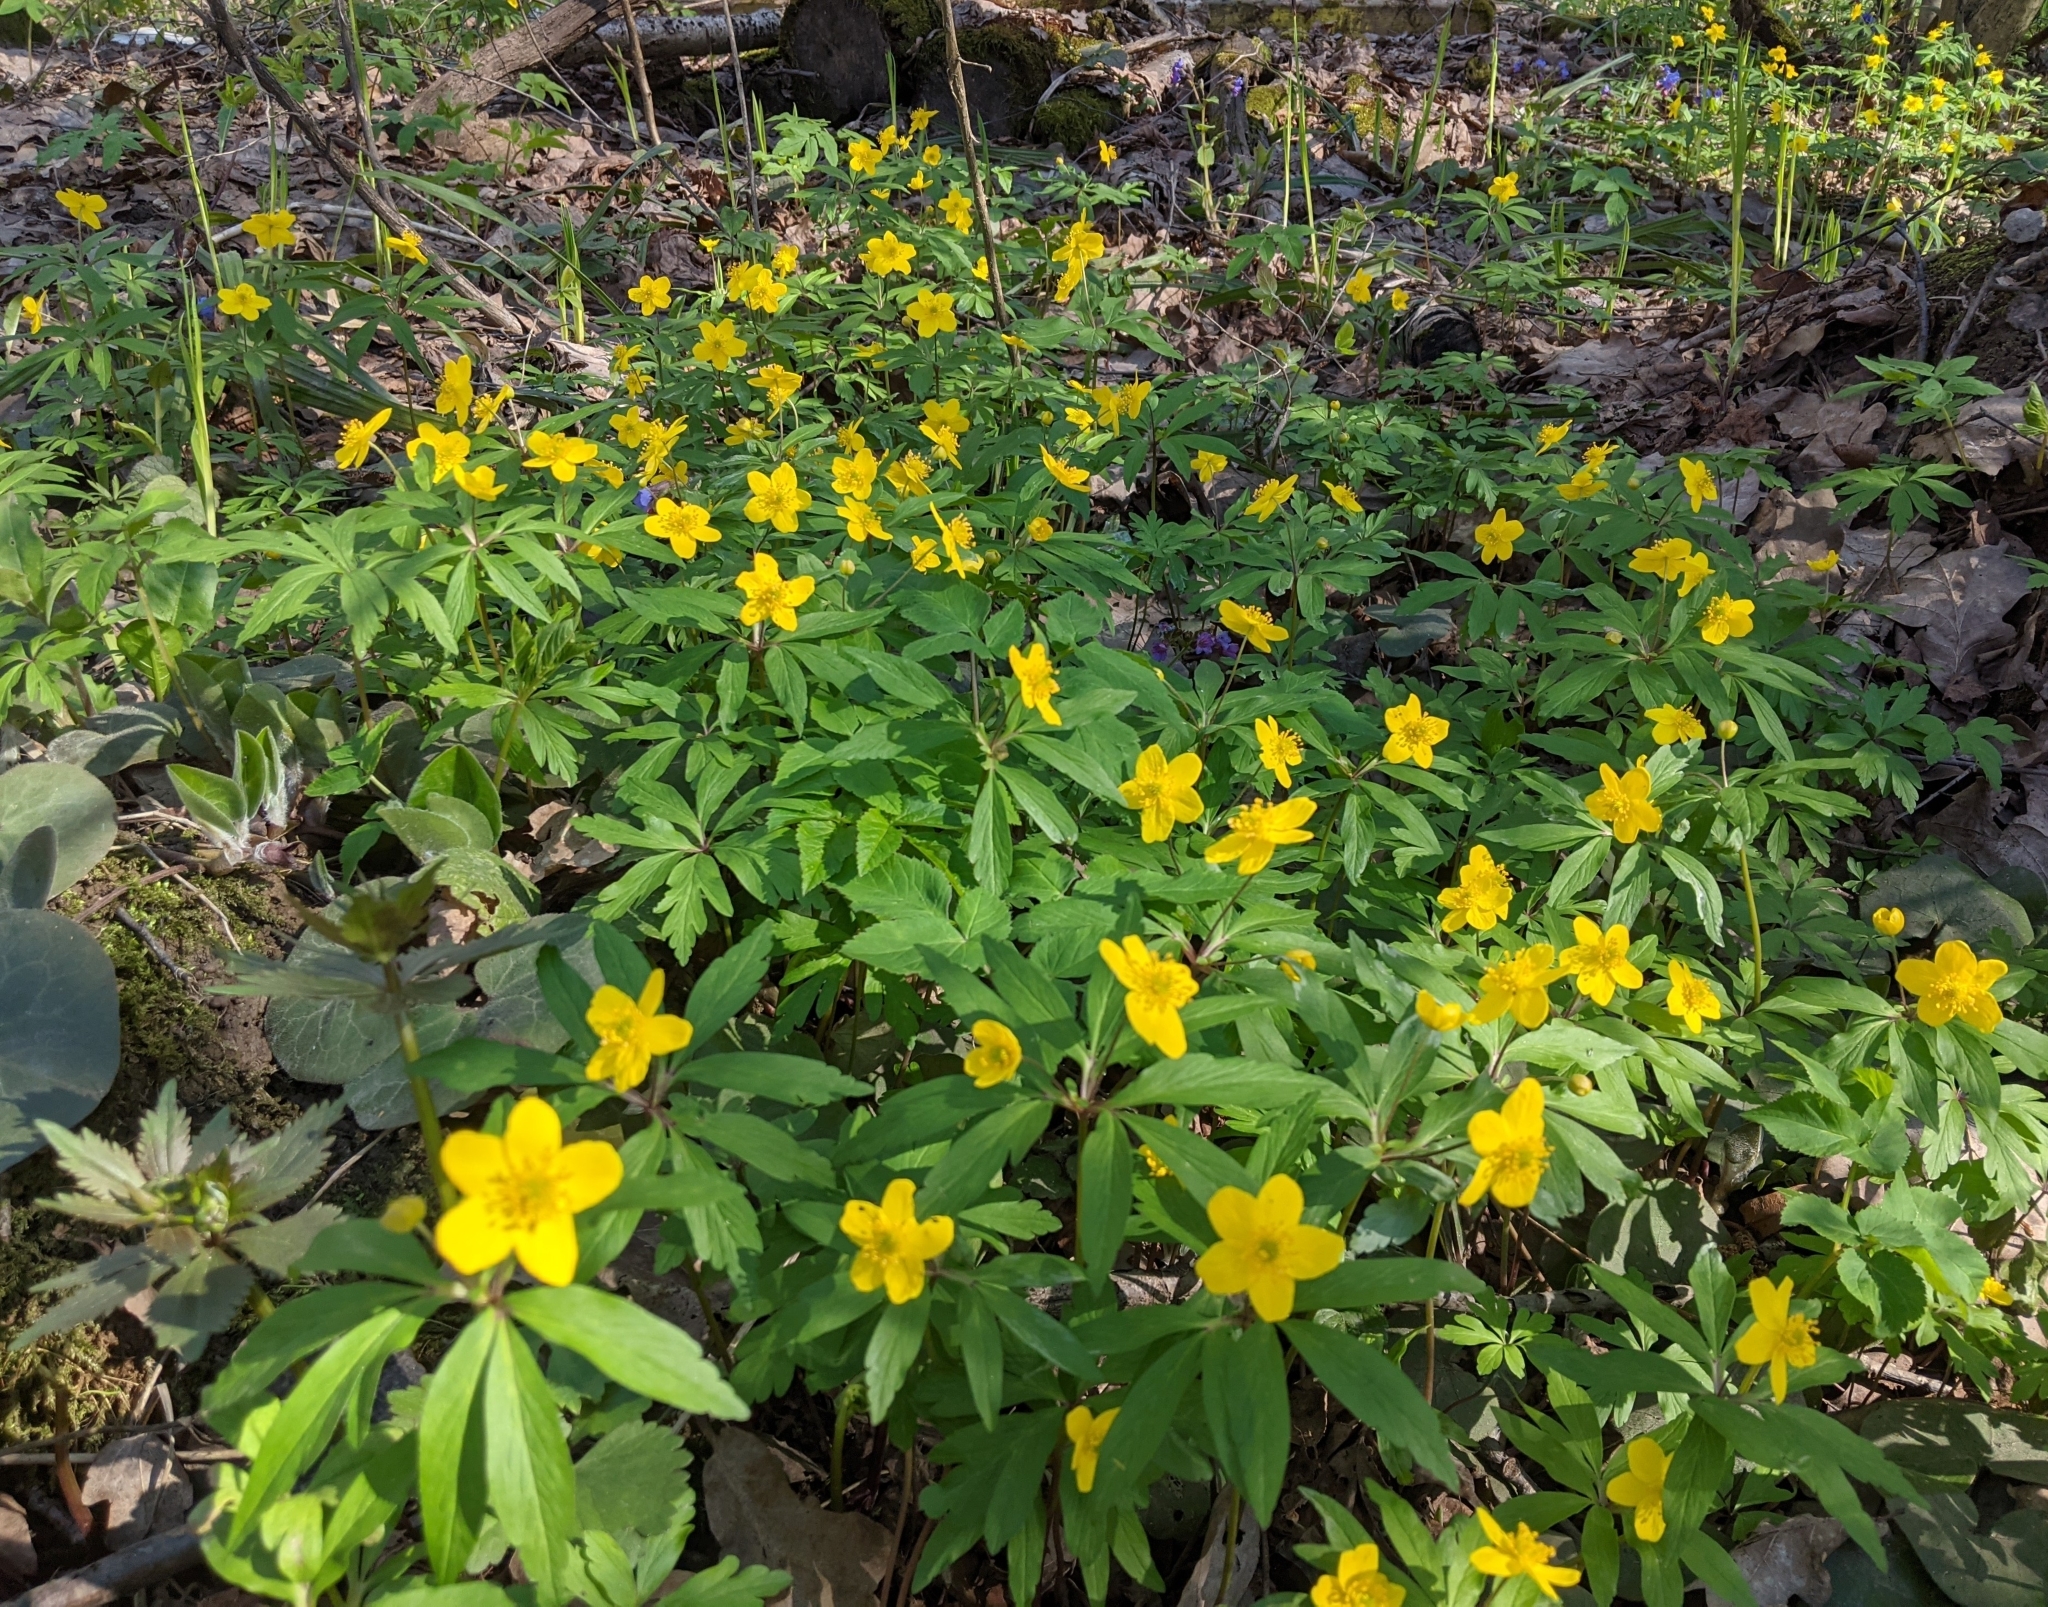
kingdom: Plantae
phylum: Tracheophyta
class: Magnoliopsida
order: Ranunculales
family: Ranunculaceae
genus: Anemone
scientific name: Anemone ranunculoides
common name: Yellow anemone
